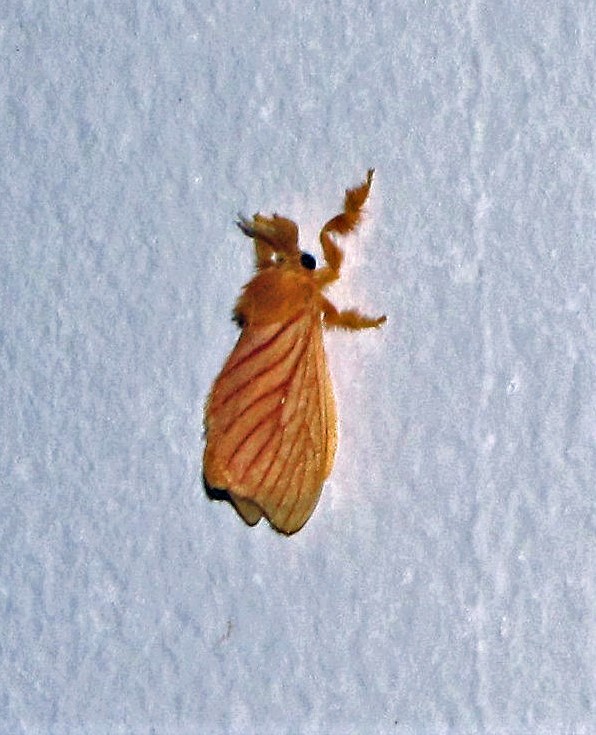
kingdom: Animalia
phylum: Arthropoda
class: Insecta
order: Lepidoptera
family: Dalceridae
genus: Acraga
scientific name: Acraga moorei
